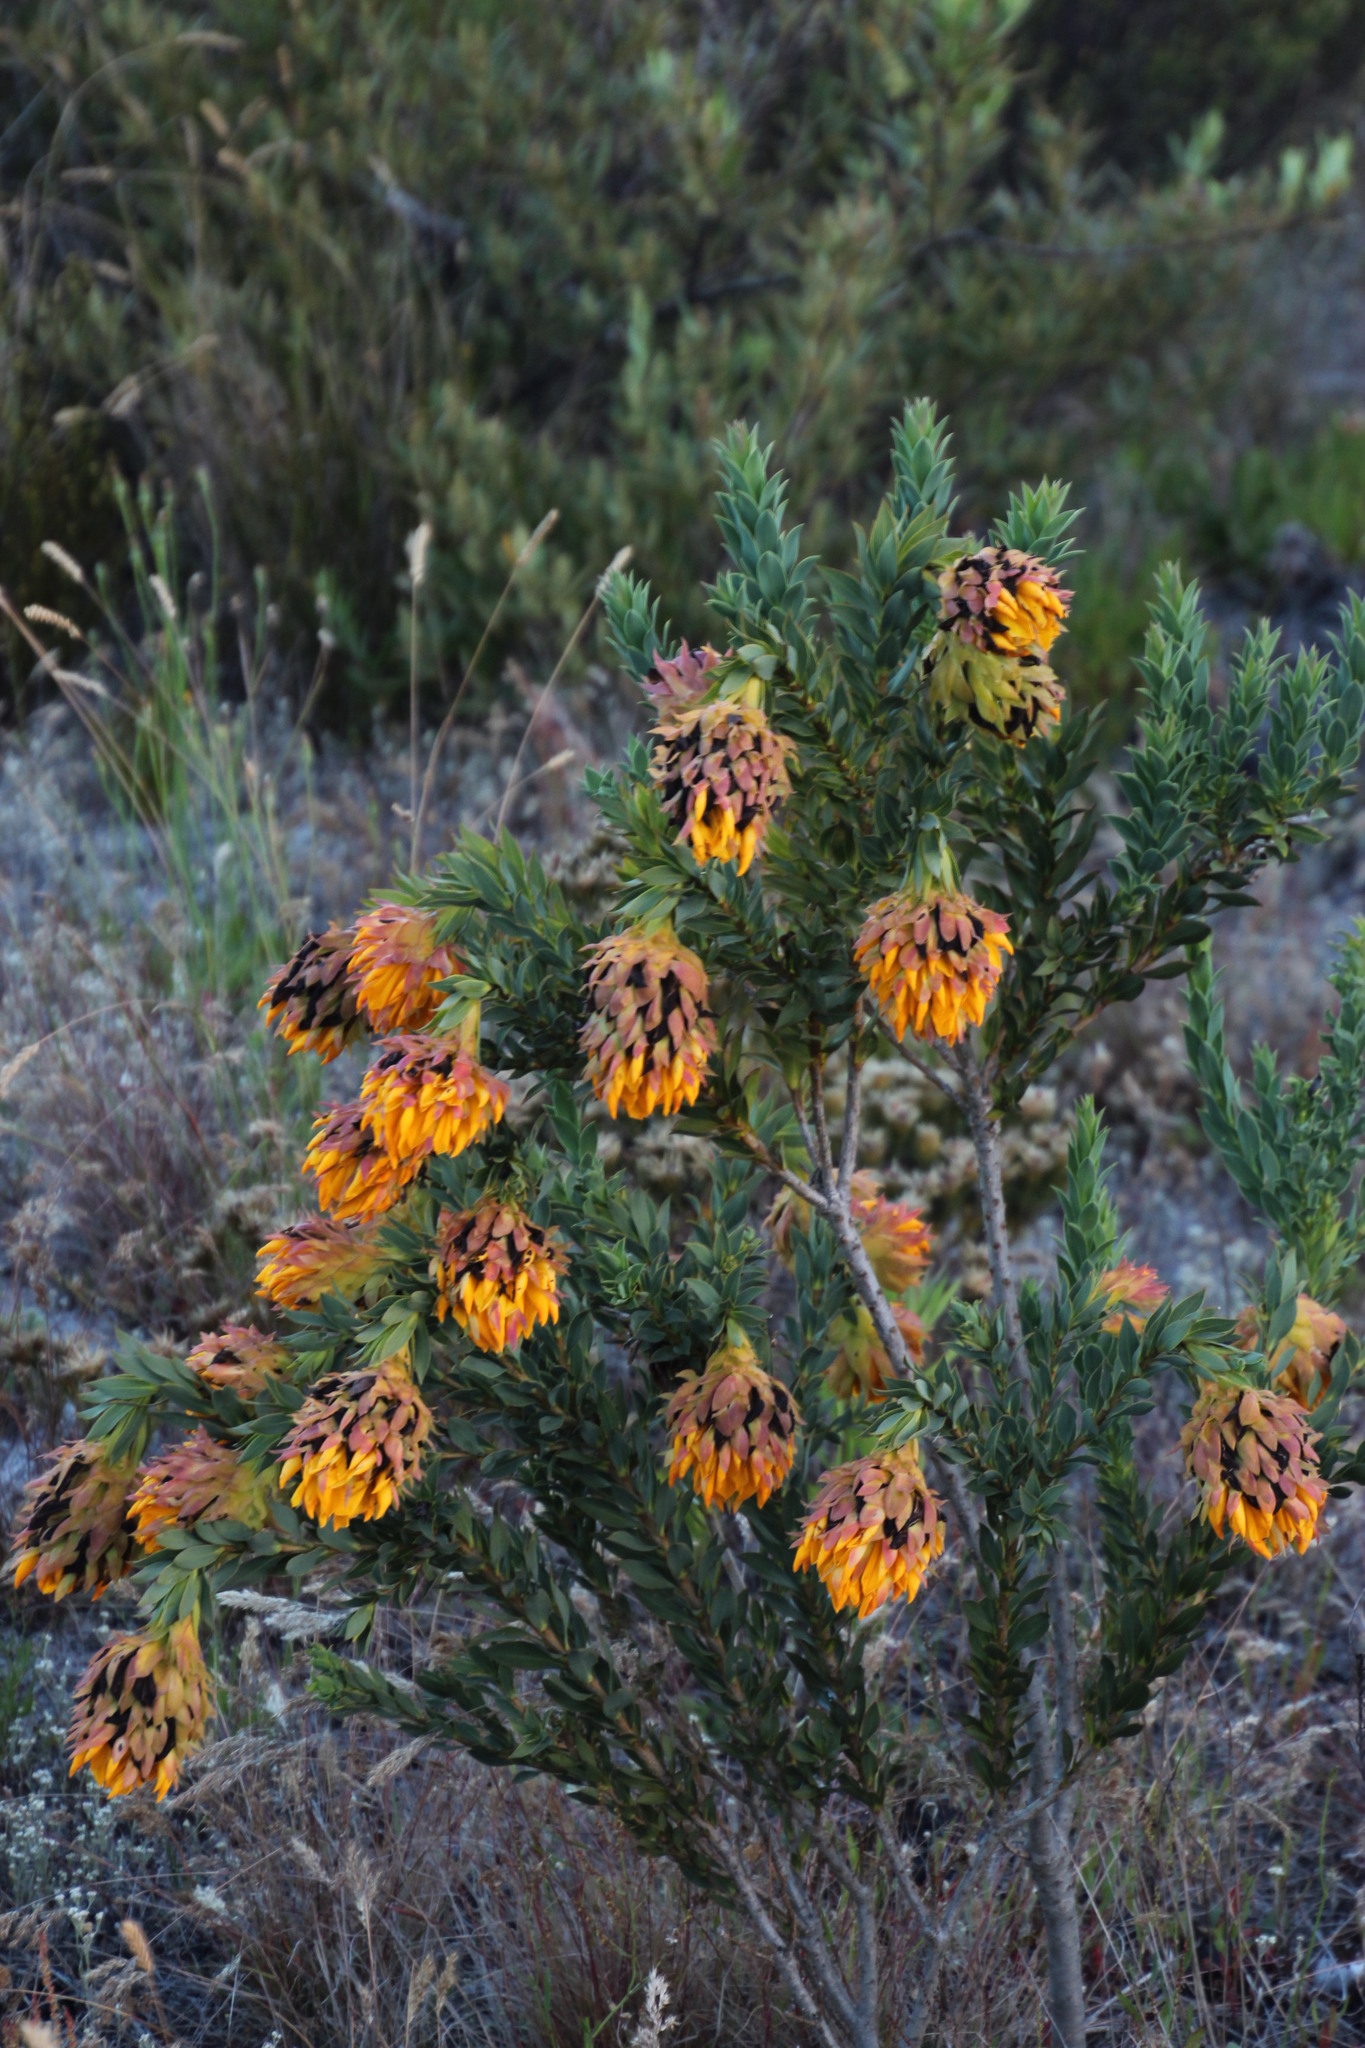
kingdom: Plantae
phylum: Tracheophyta
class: Magnoliopsida
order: Fabales
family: Fabaceae
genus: Liparia
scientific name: Liparia splendens
